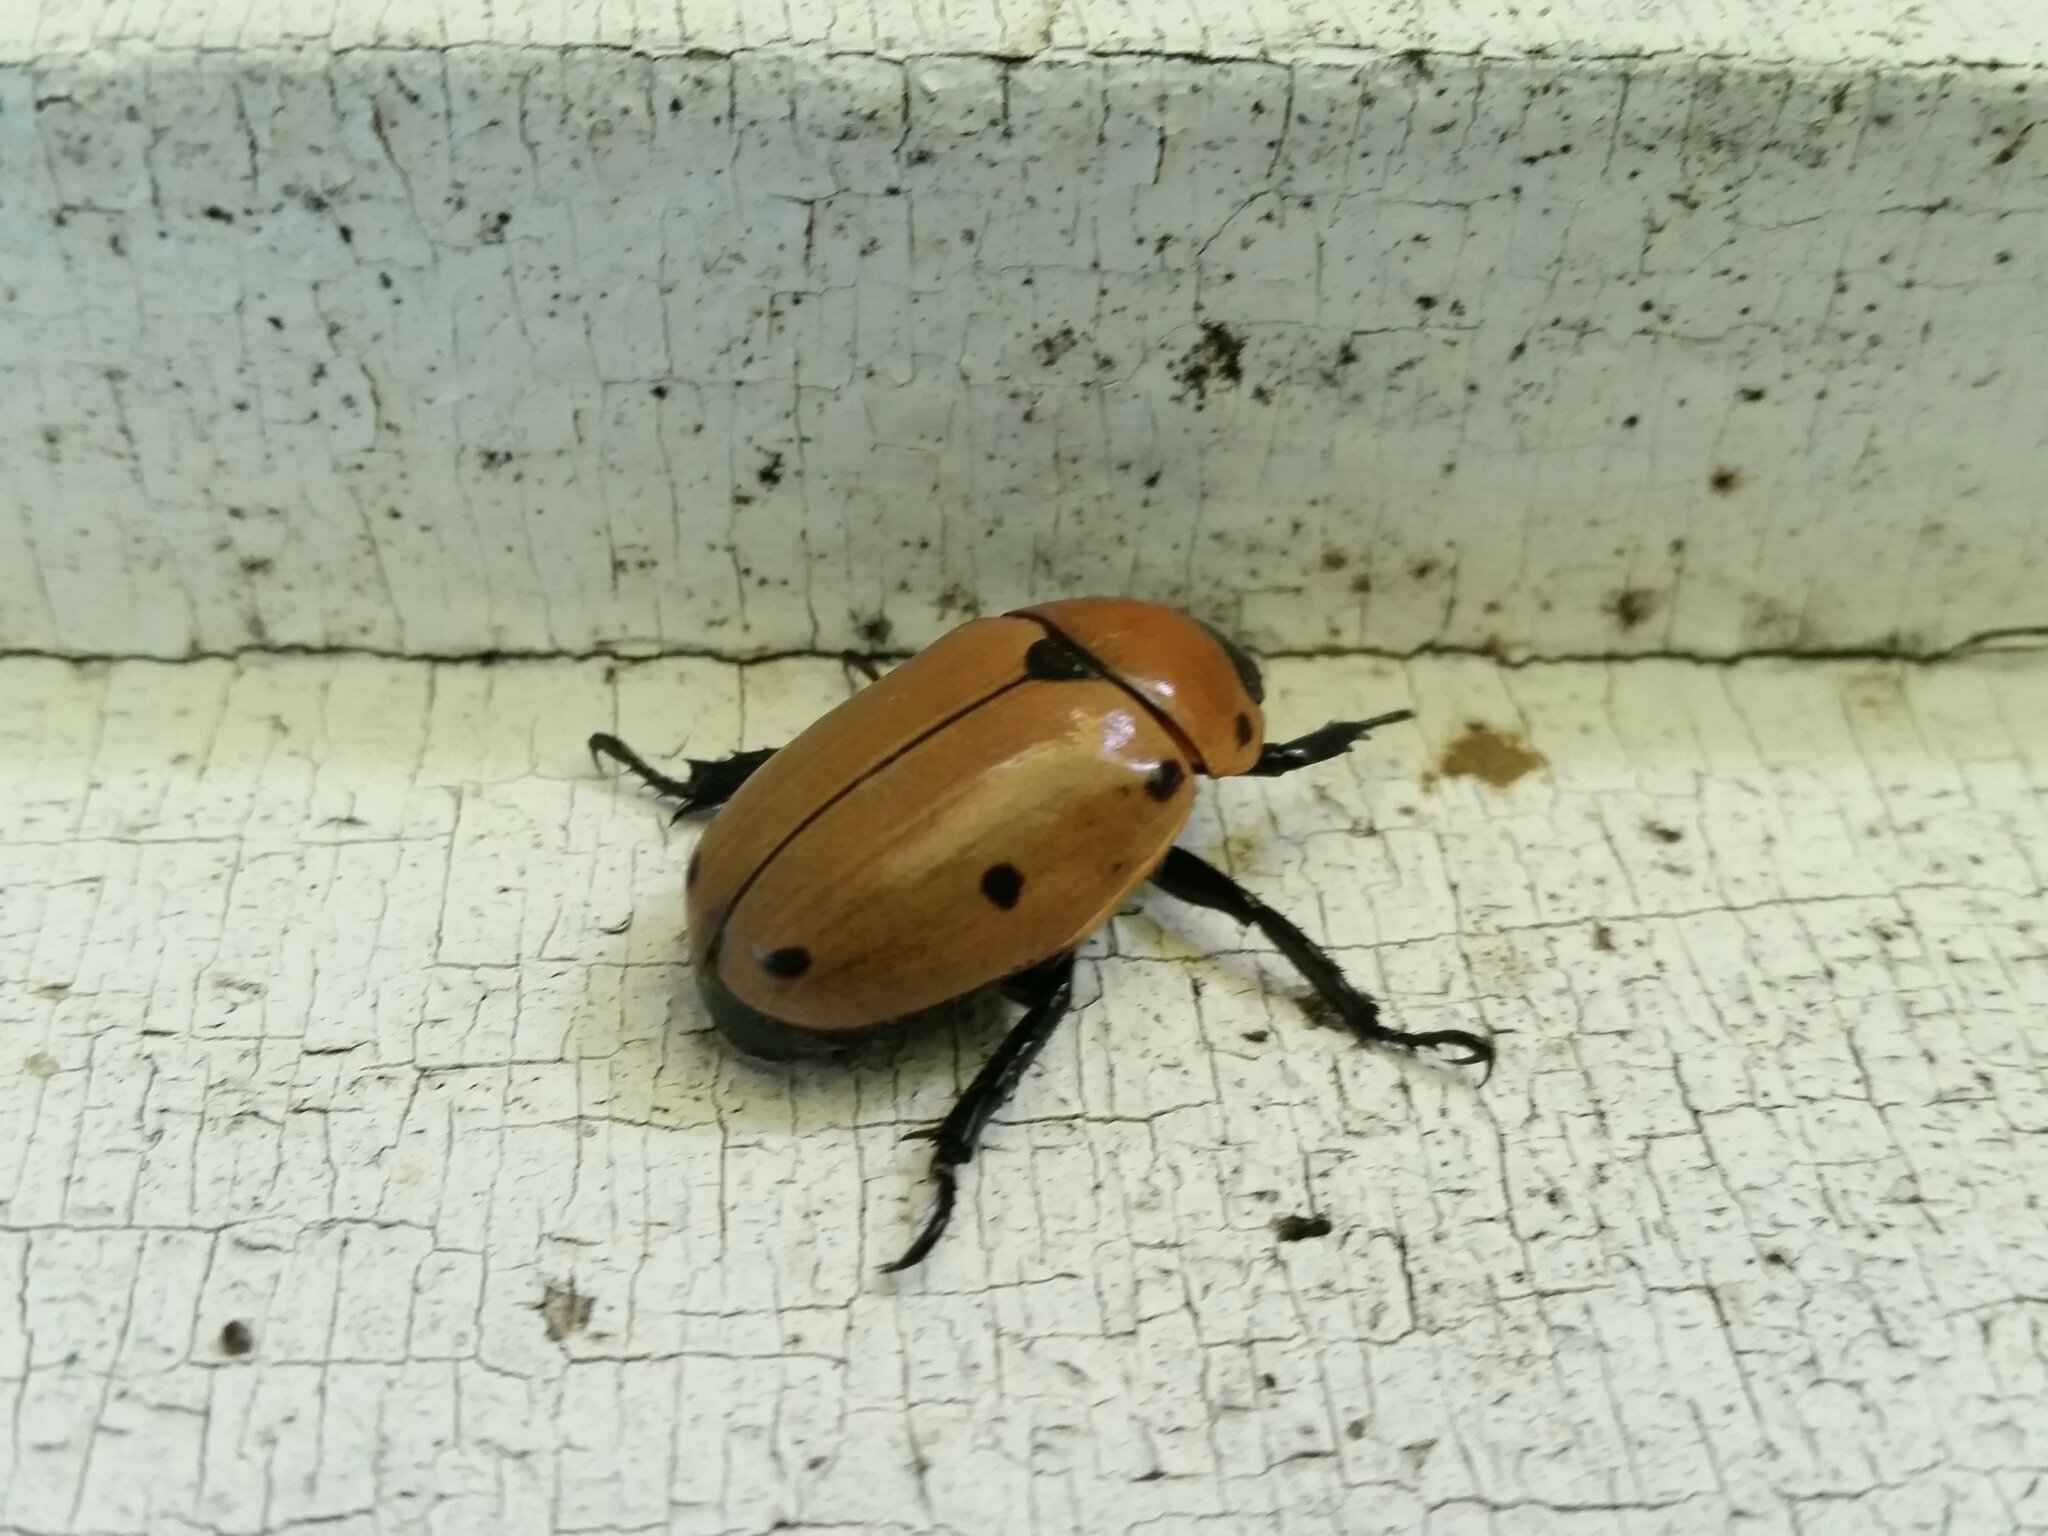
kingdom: Animalia
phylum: Arthropoda
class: Insecta
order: Coleoptera
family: Scarabaeidae
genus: Pelidnota
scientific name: Pelidnota punctata
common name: Grapevine beetle
